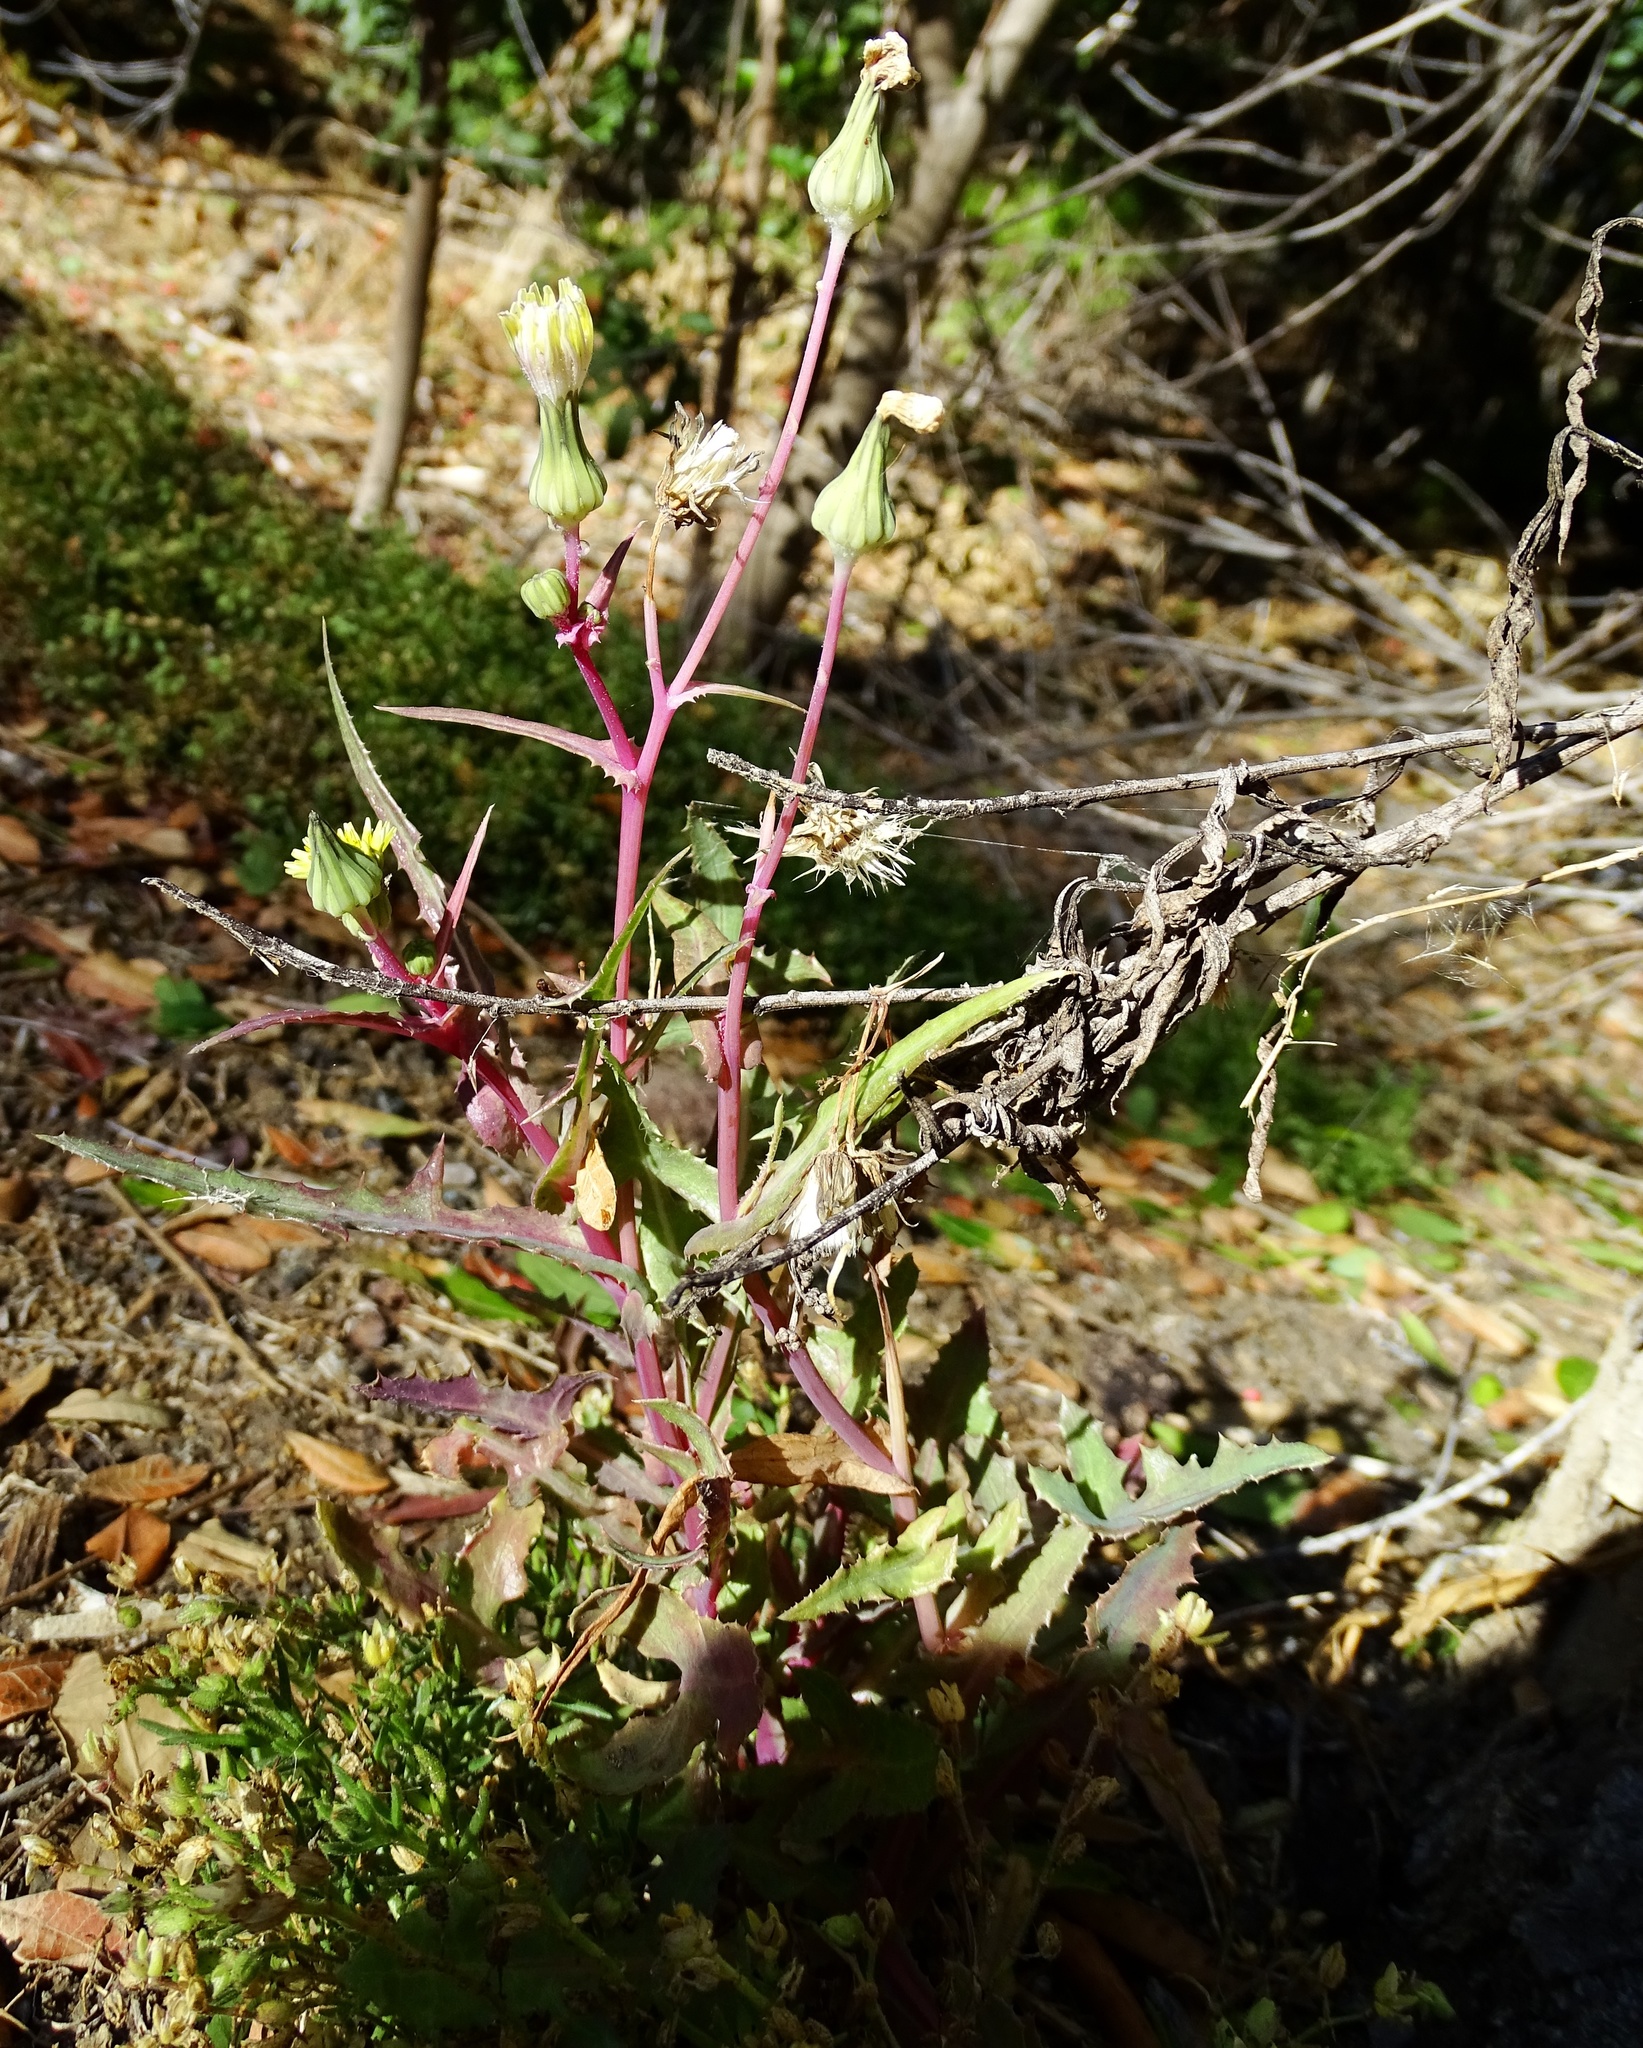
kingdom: Plantae
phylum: Tracheophyta
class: Magnoliopsida
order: Asterales
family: Asteraceae
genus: Sonchus
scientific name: Sonchus oleraceus
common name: Common sowthistle
